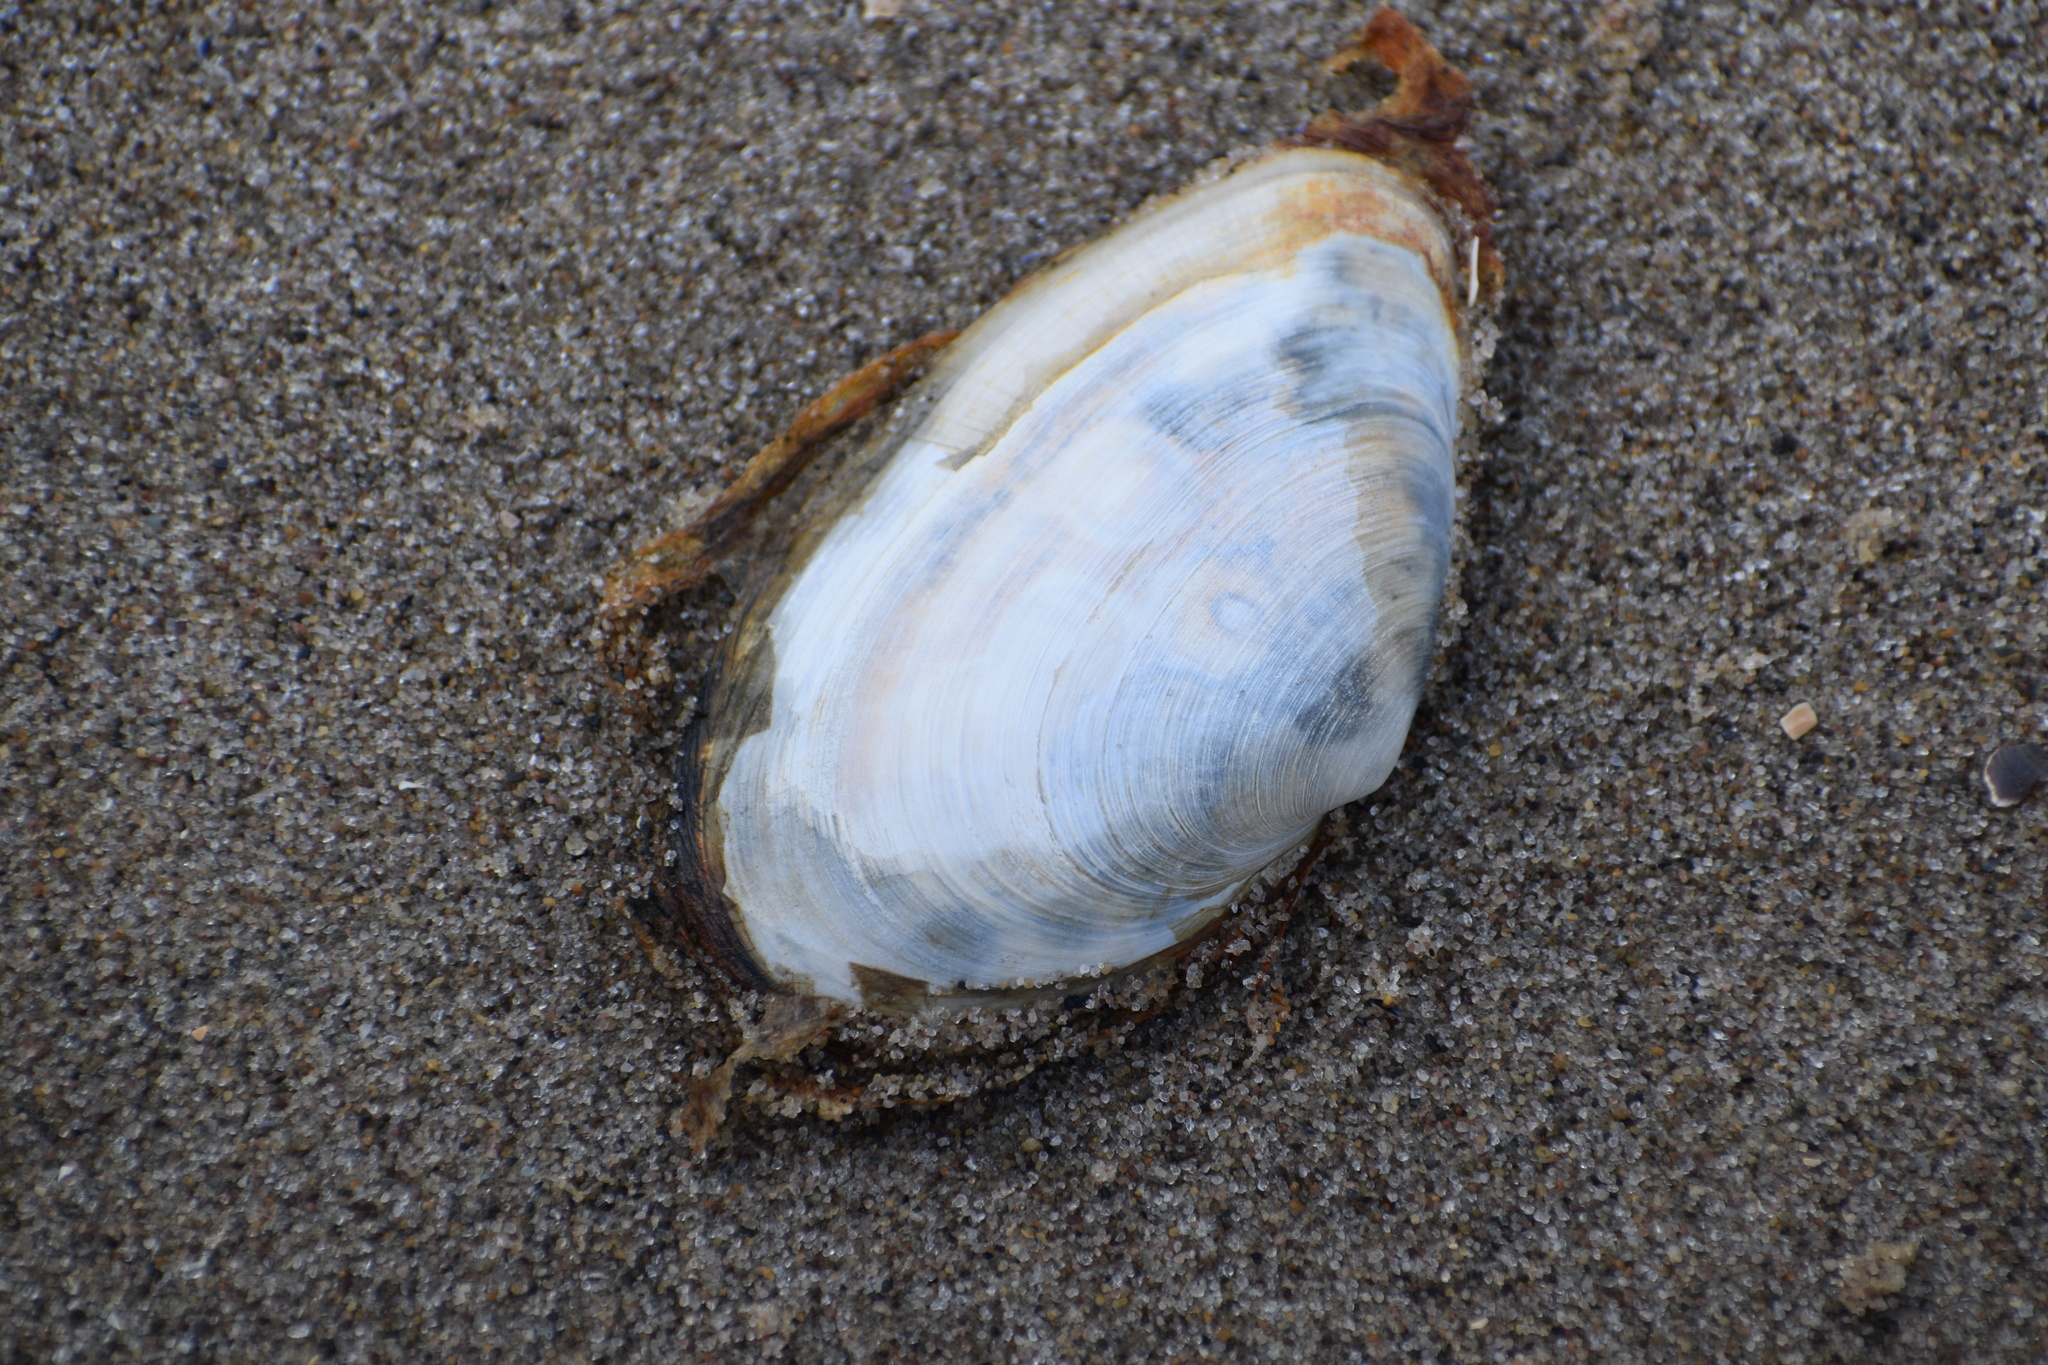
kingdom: Animalia
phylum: Mollusca
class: Bivalvia
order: Myida
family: Myidae
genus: Mya
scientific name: Mya arenaria
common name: Soft-shelled clam
